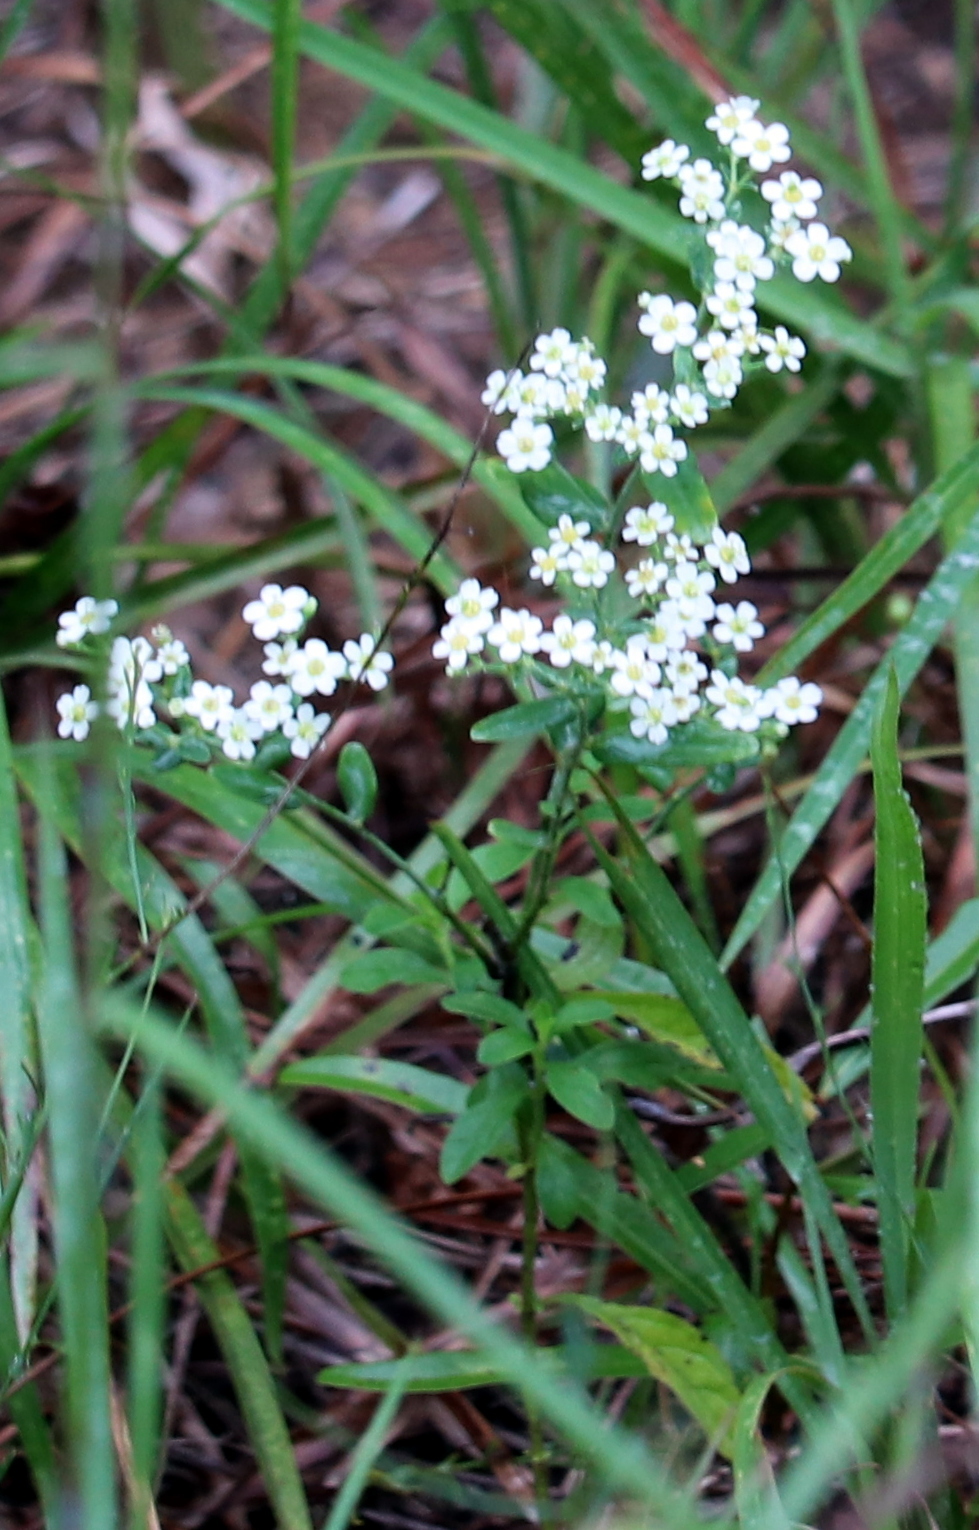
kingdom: Plantae
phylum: Tracheophyta
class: Magnoliopsida
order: Malpighiales
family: Euphorbiaceae
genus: Euphorbia
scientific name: Euphorbia corollata
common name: Flowering spurge
